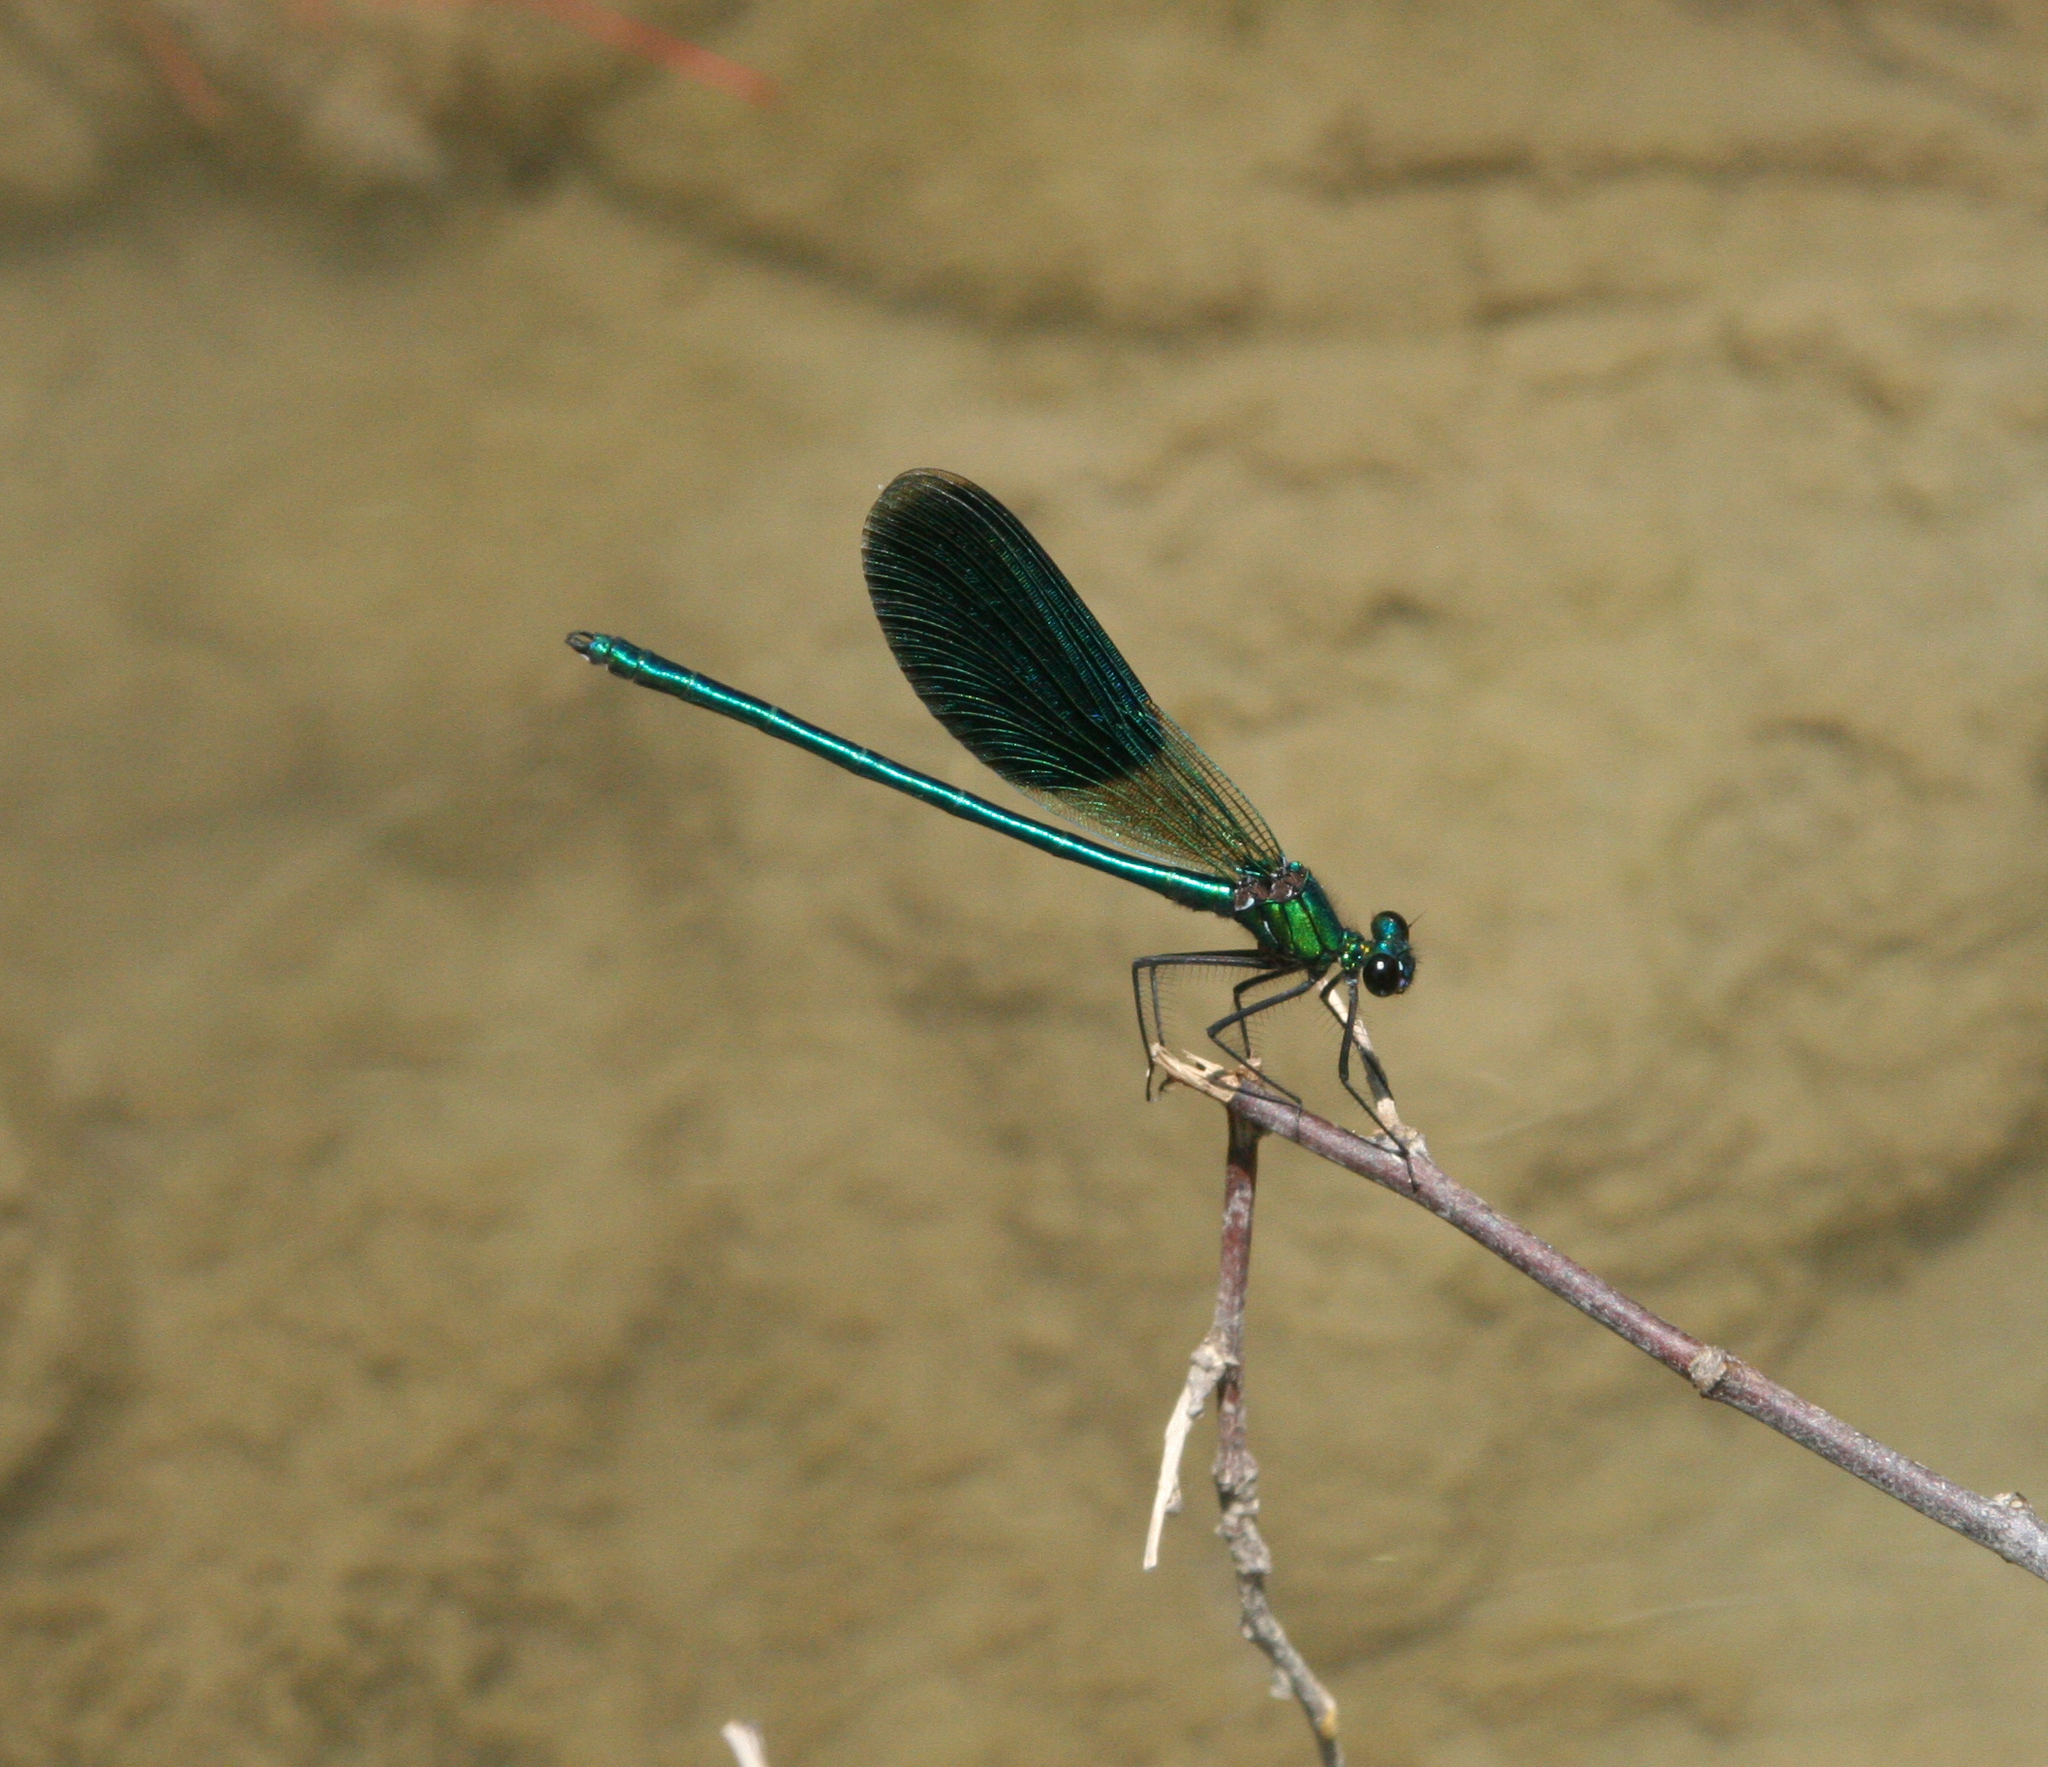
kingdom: Animalia
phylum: Arthropoda
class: Insecta
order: Odonata
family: Calopterygidae
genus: Calopteryx
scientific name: Calopteryx splendens
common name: Banded demoiselle
